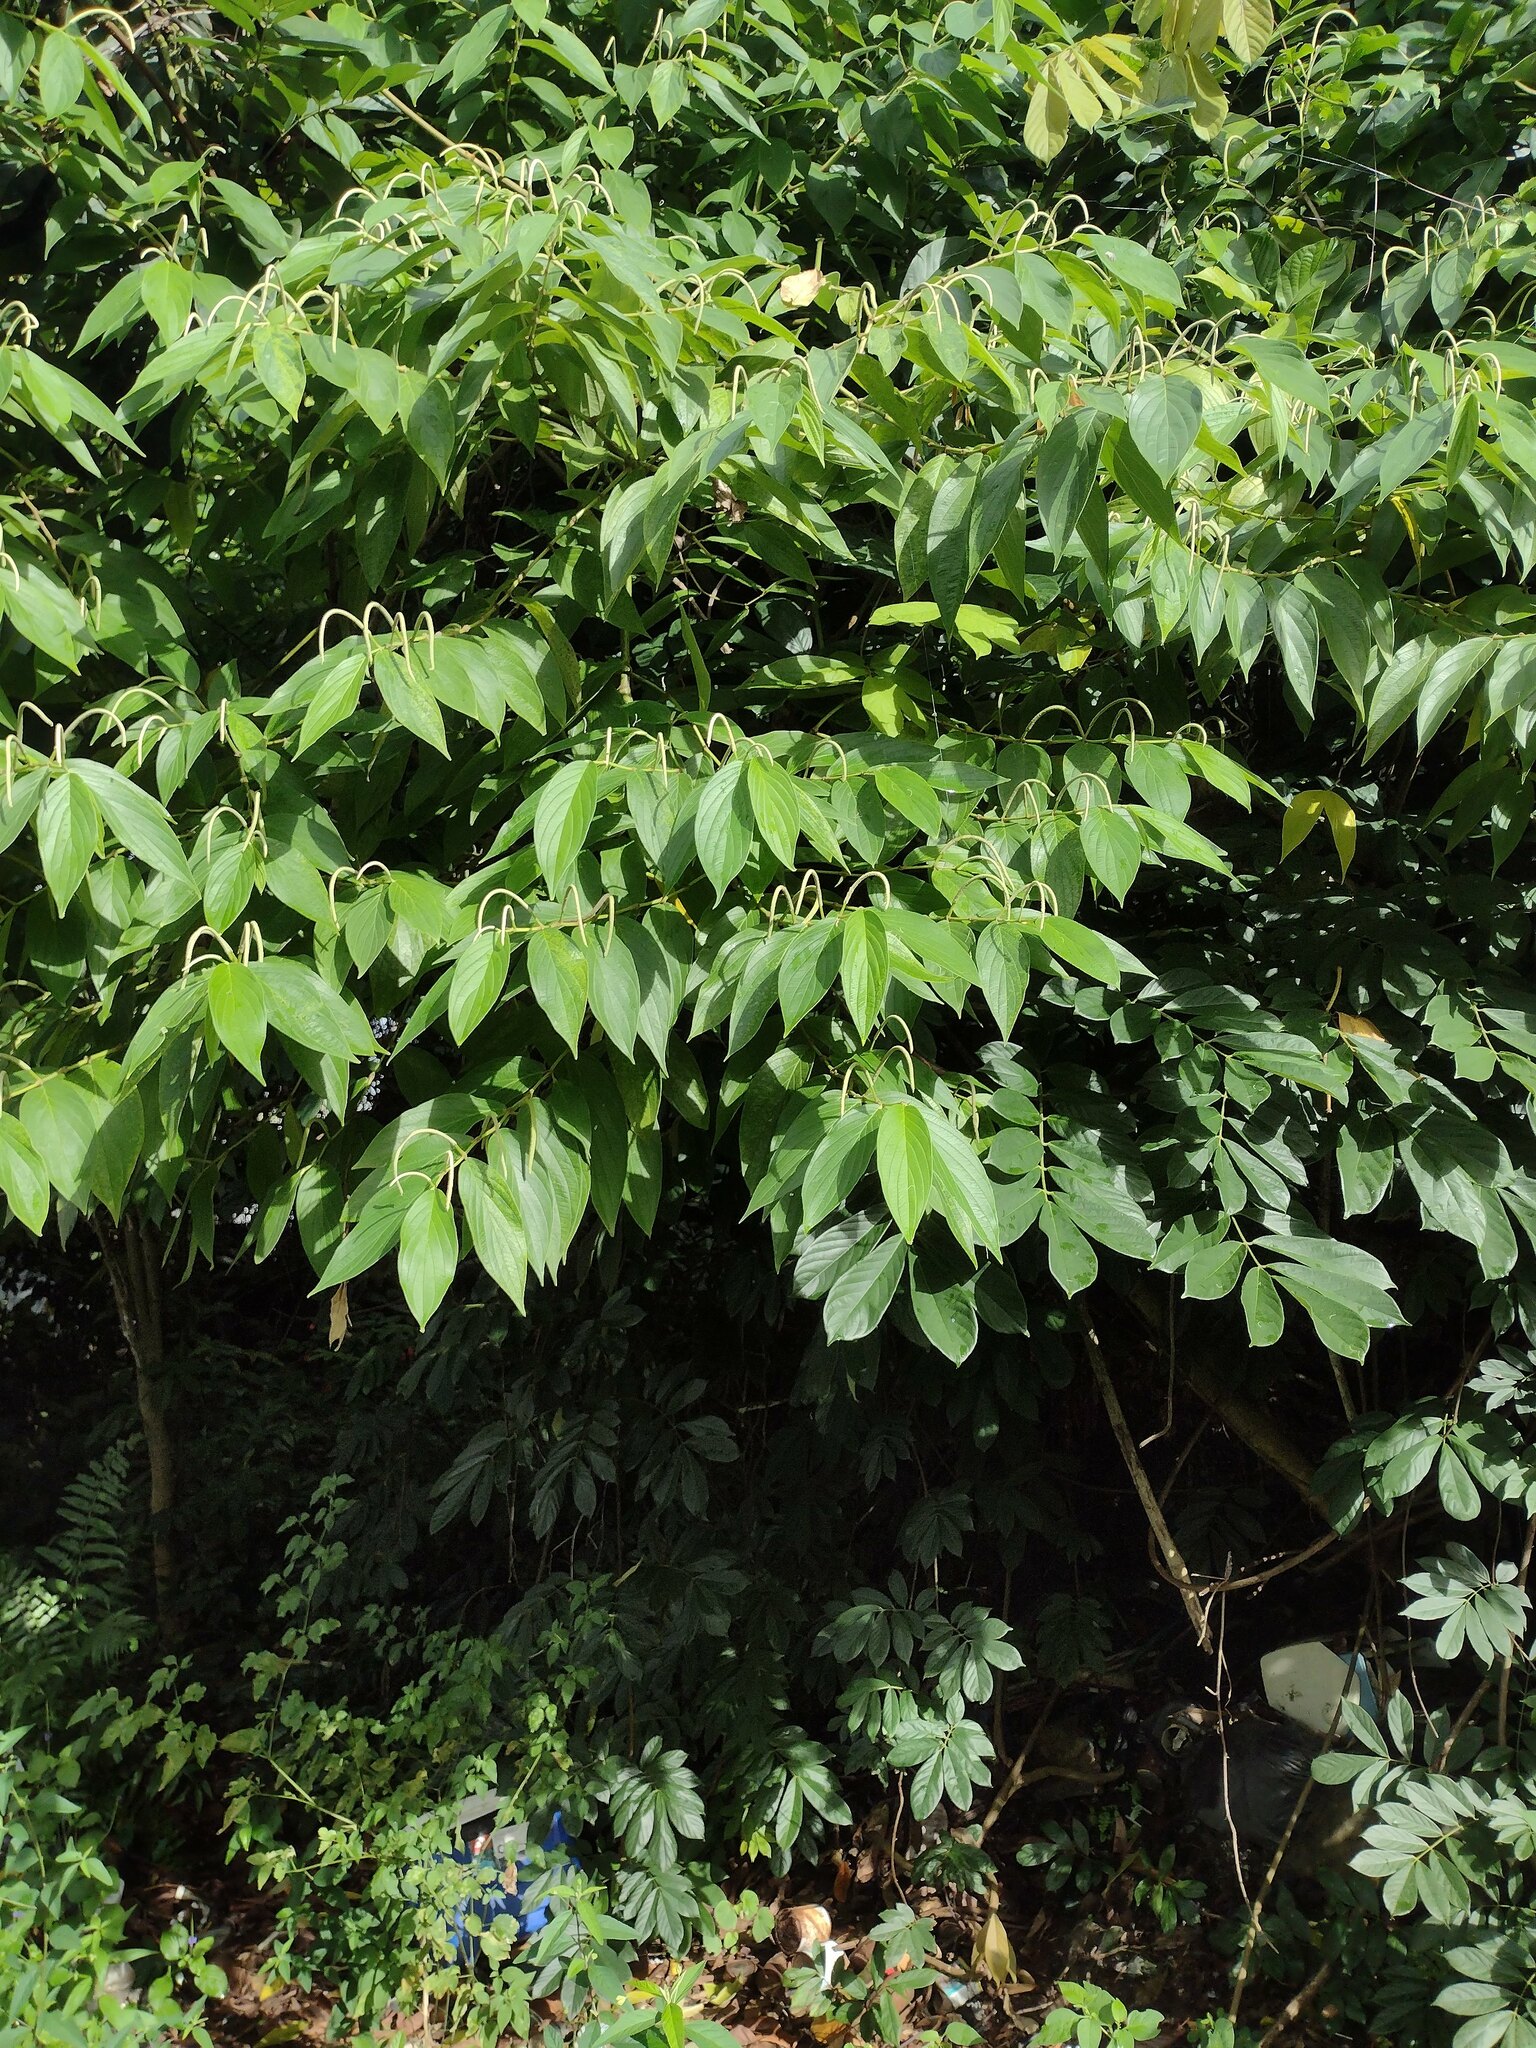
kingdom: Plantae
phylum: Tracheophyta
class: Magnoliopsida
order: Piperales
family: Piperaceae
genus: Piper
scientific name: Piper aduncum
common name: Spiked pepper
